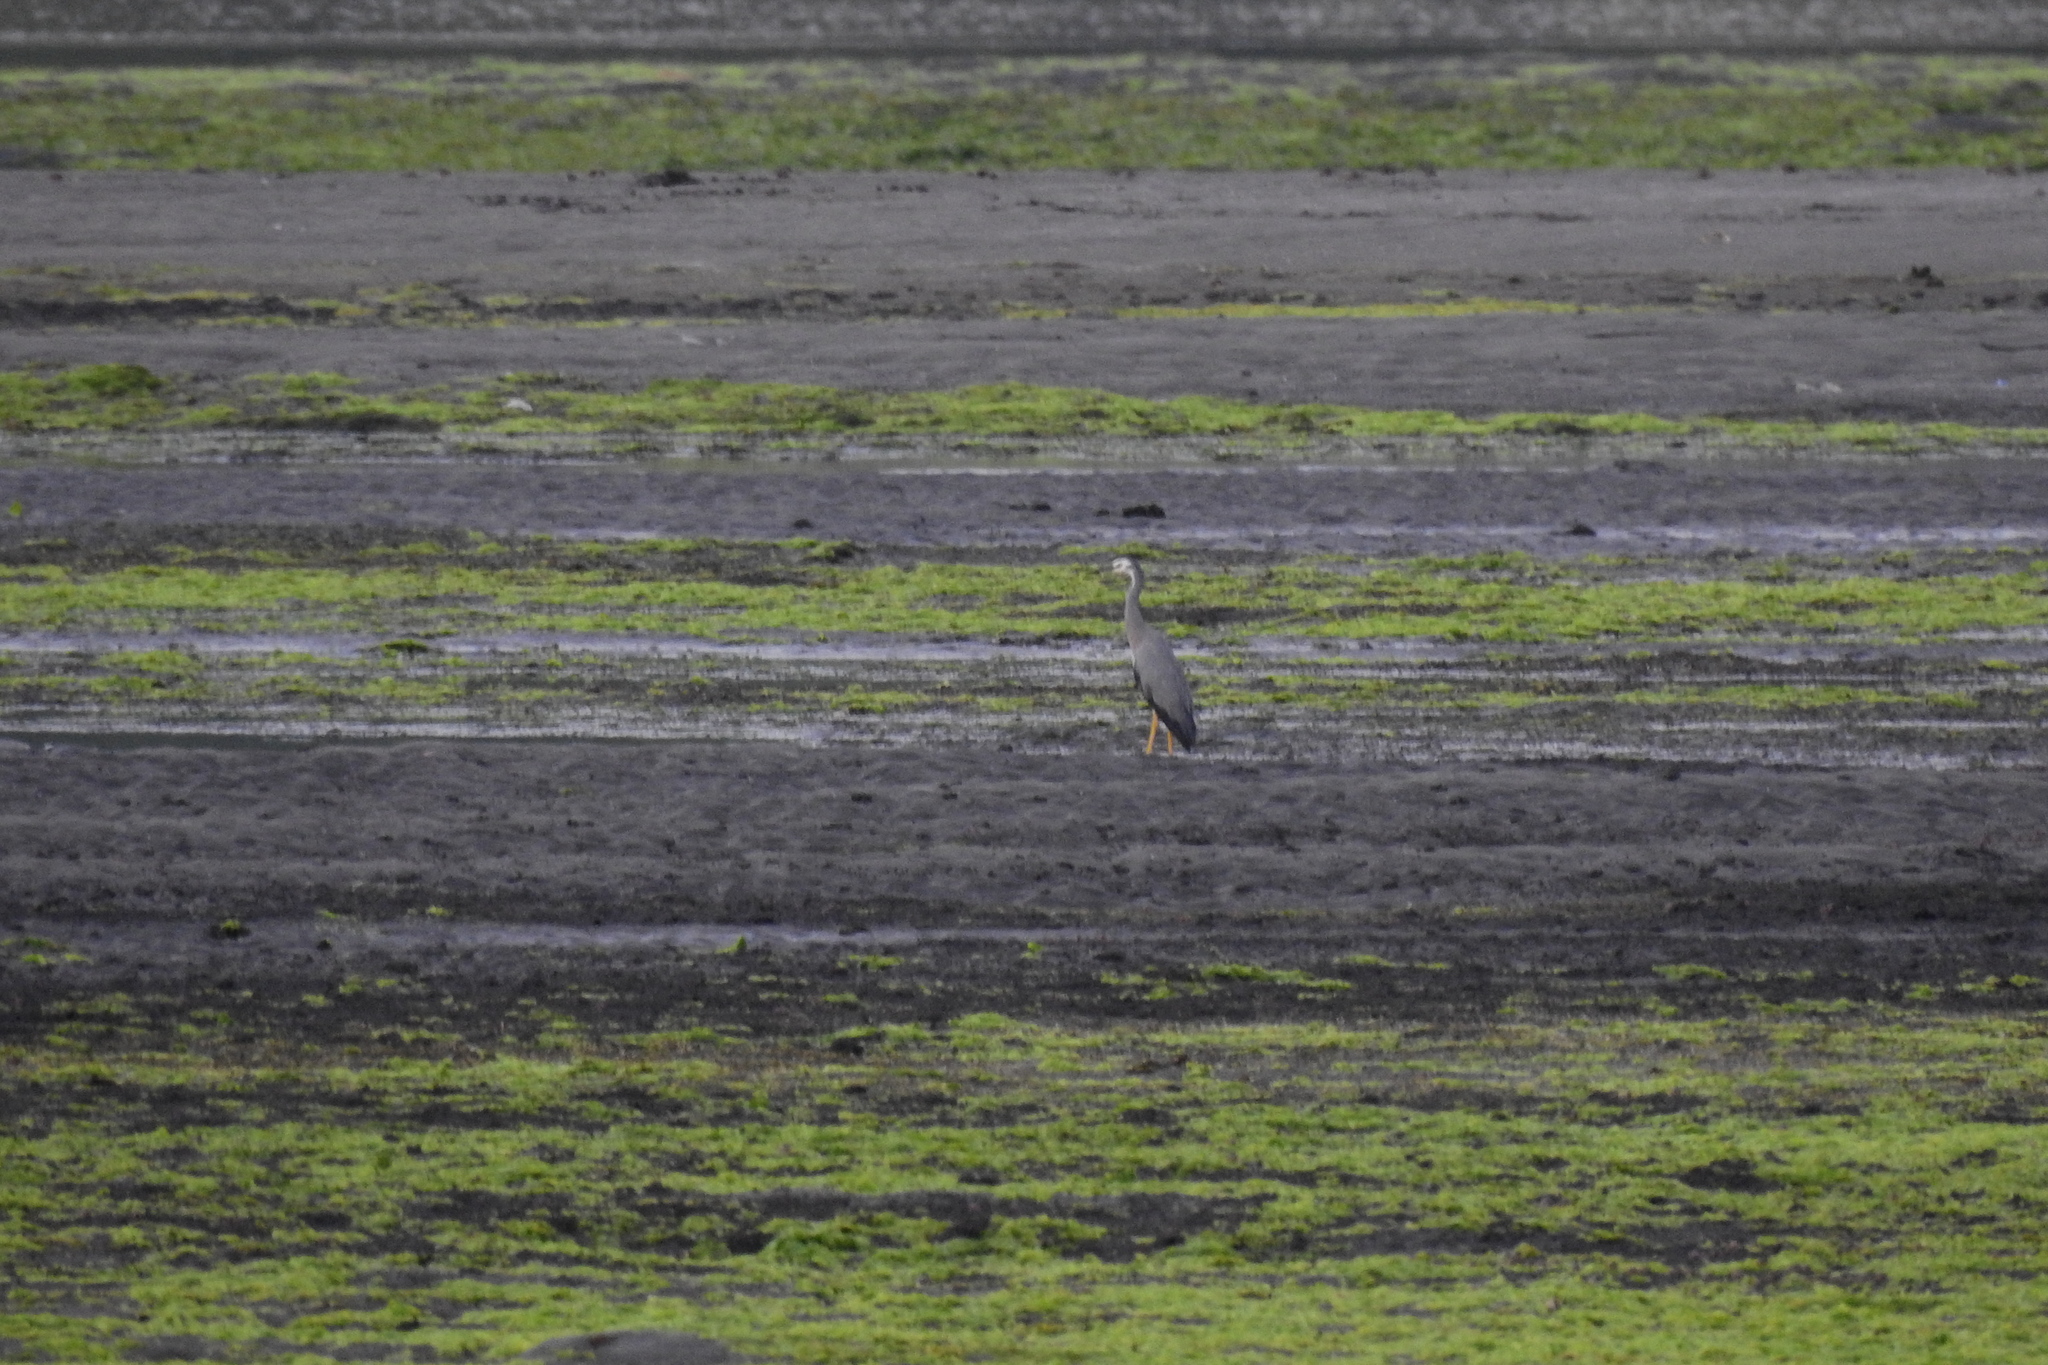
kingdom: Animalia
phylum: Chordata
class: Aves
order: Pelecaniformes
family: Ardeidae
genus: Egretta
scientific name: Egretta novaehollandiae
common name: White-faced heron
